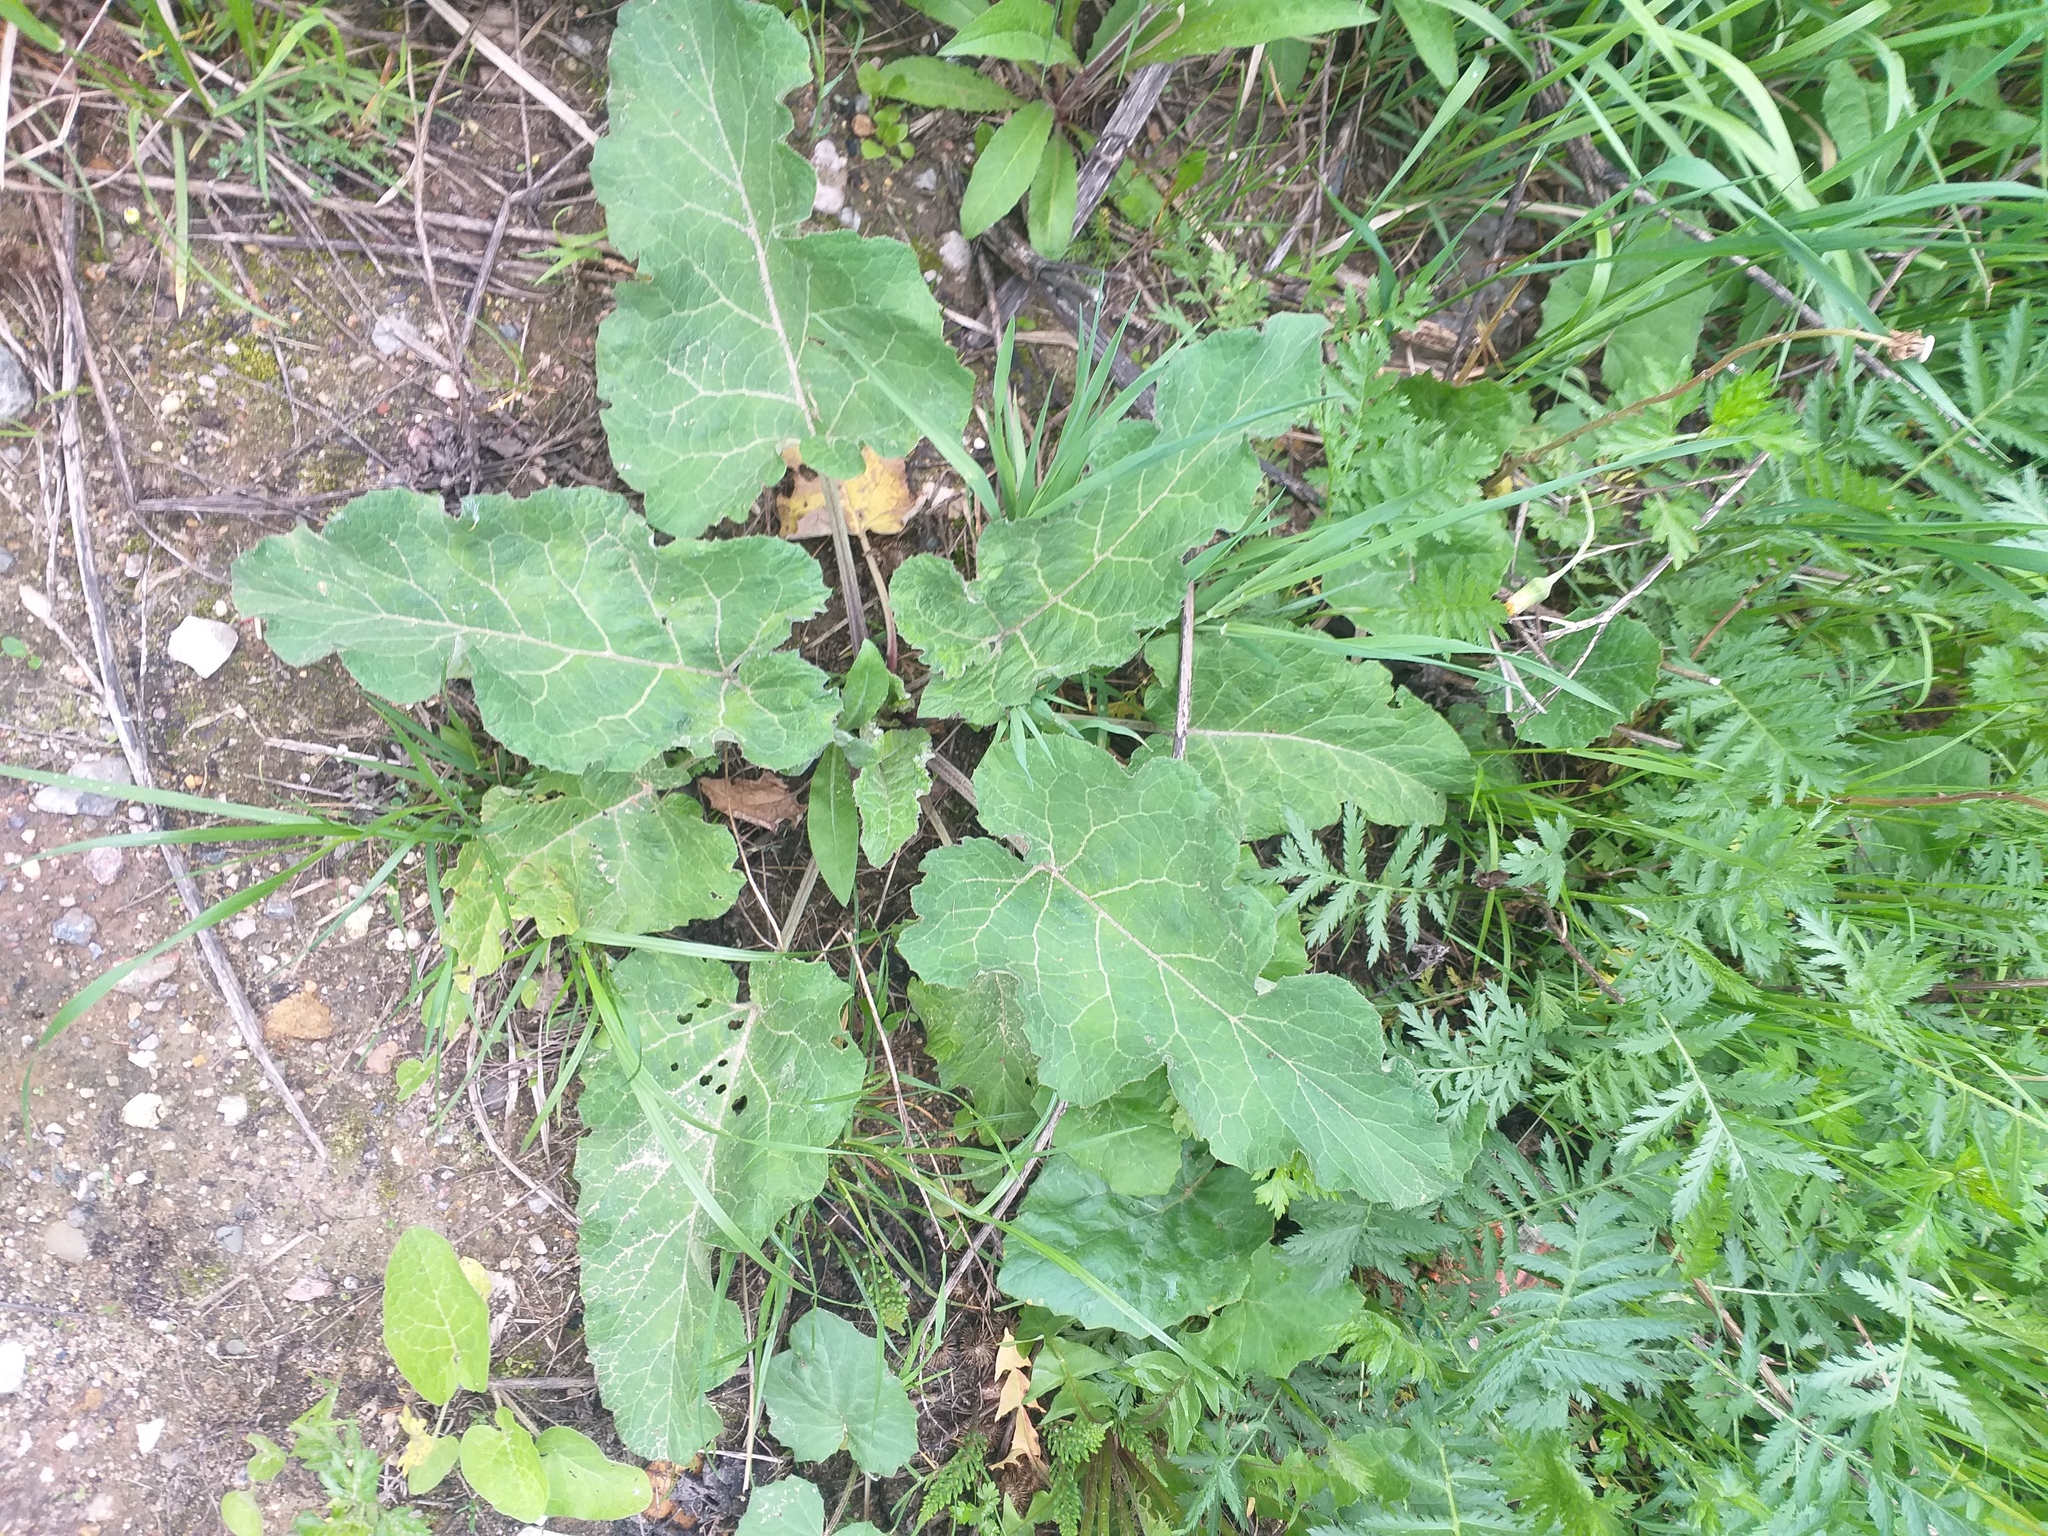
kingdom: Plantae
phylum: Tracheophyta
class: Magnoliopsida
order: Asterales
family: Asteraceae
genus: Arctium
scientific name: Arctium
